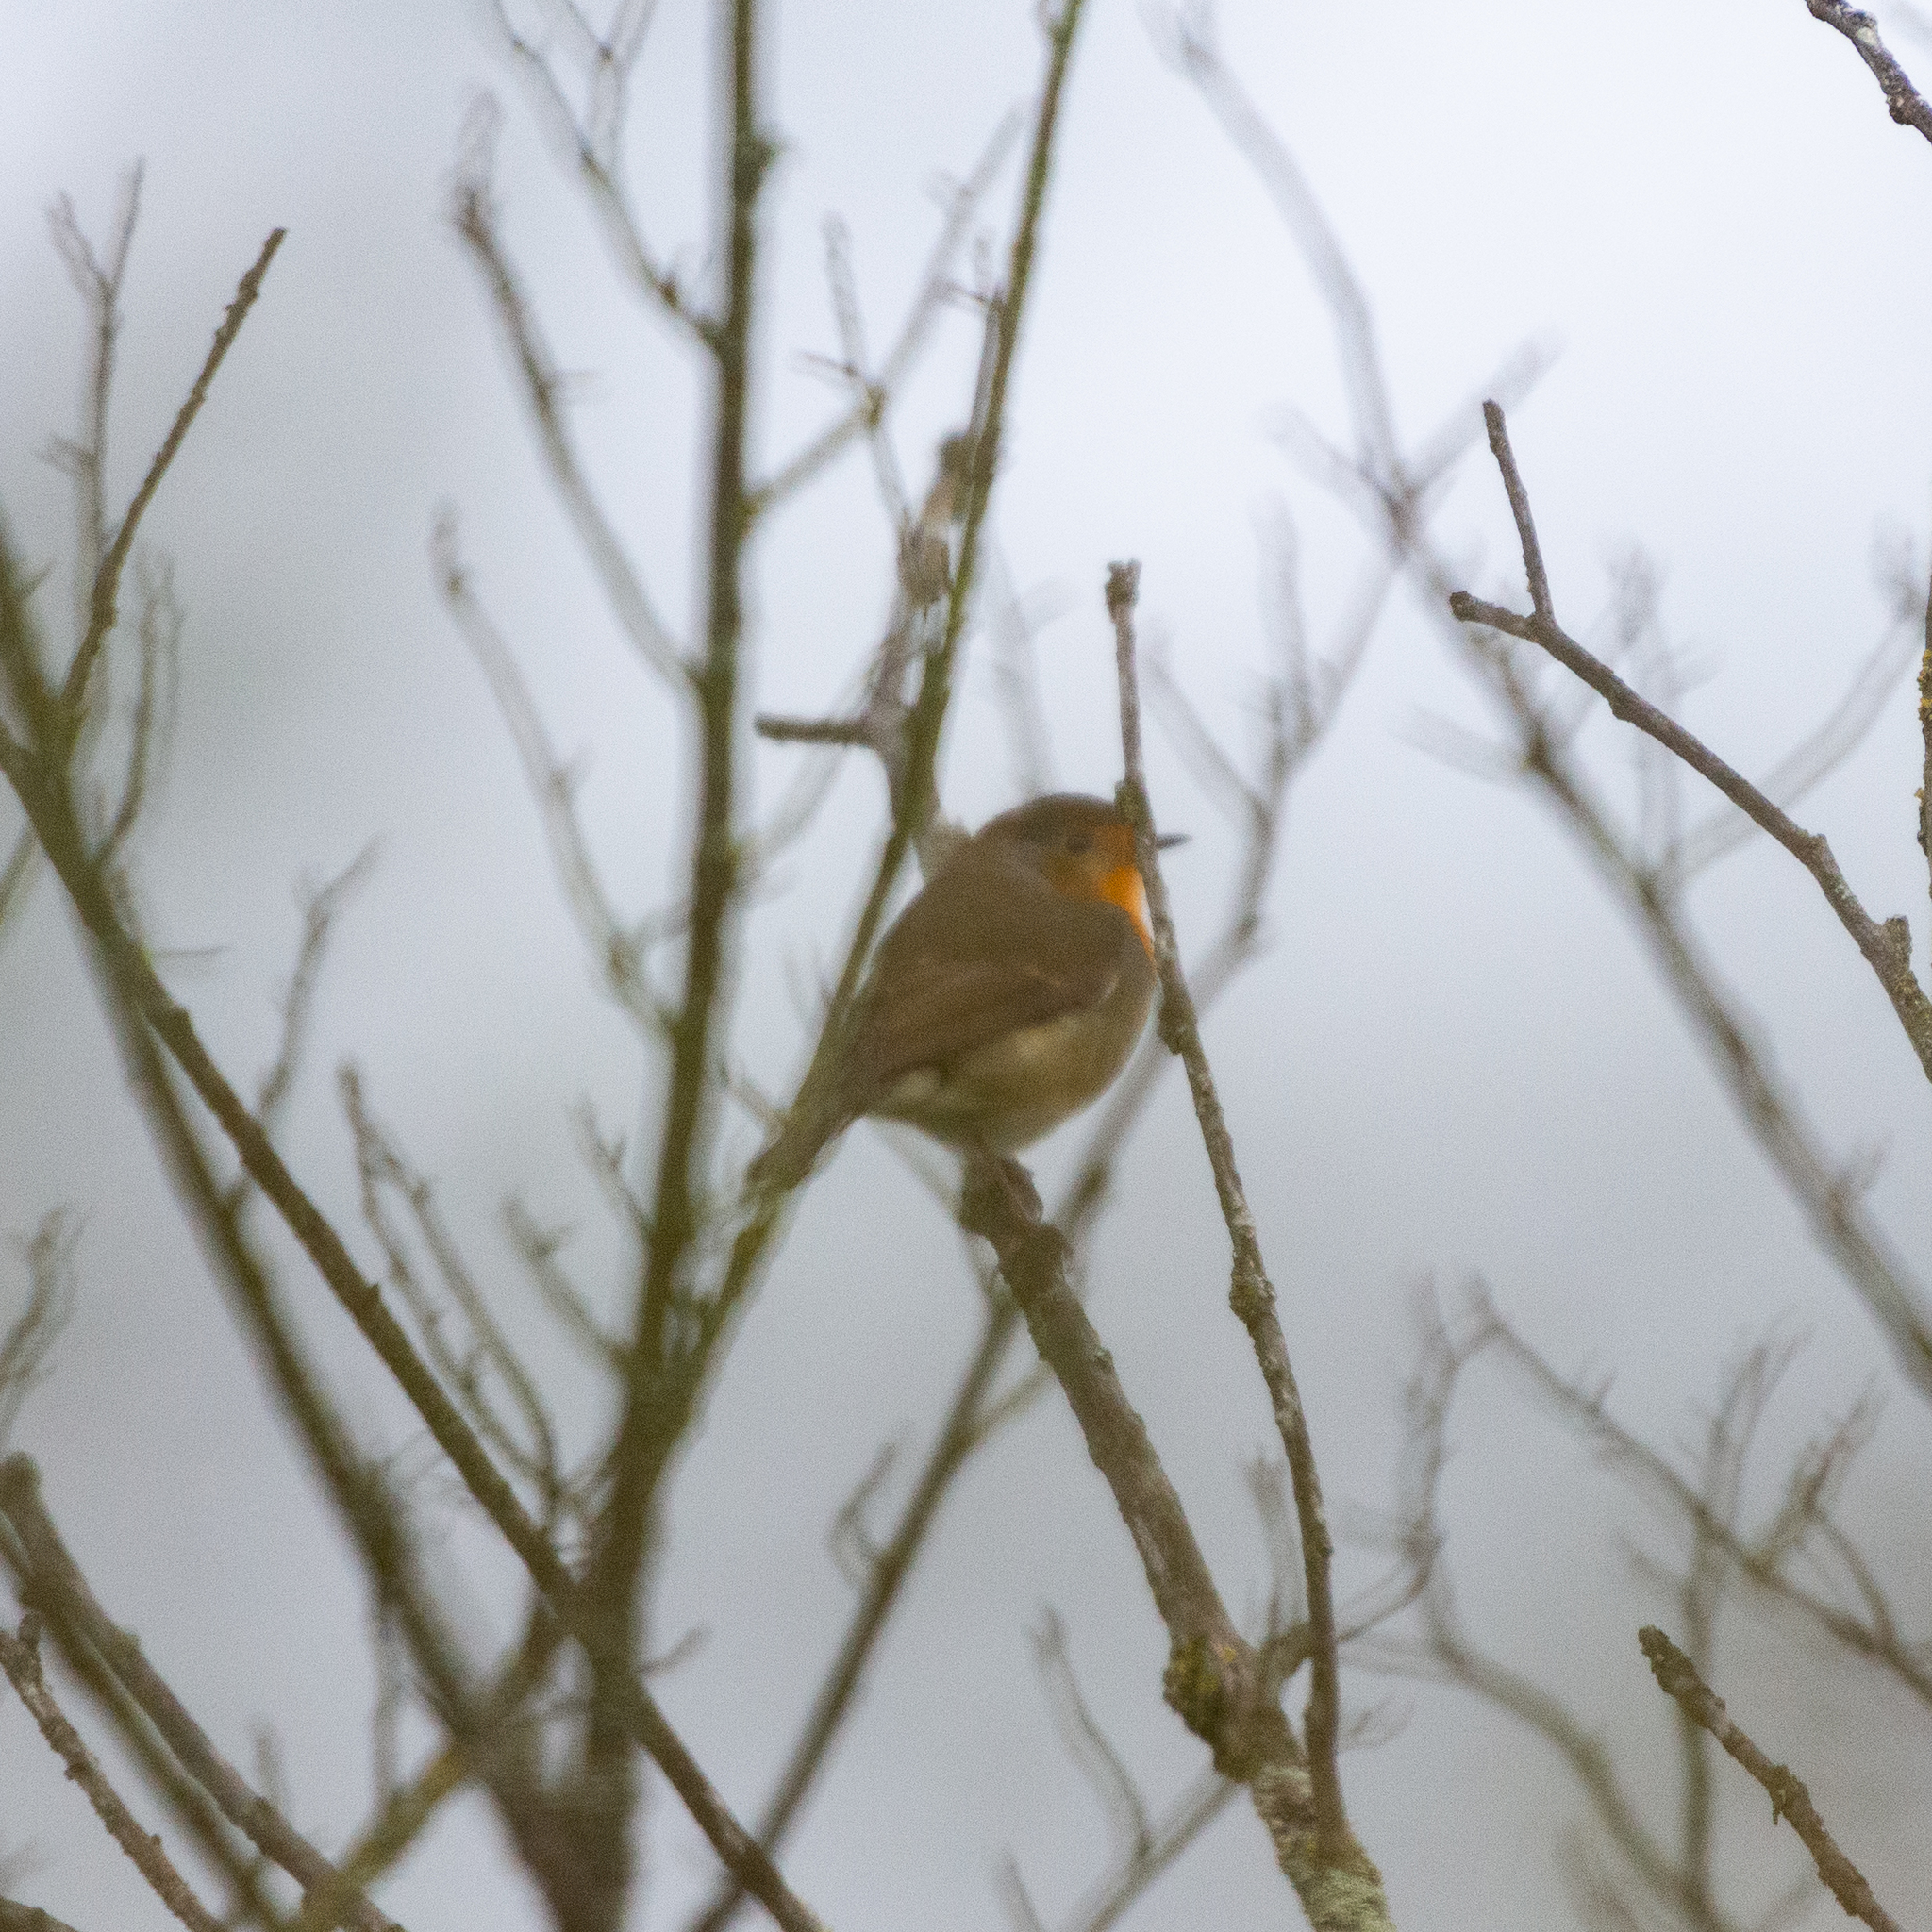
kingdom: Animalia
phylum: Chordata
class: Aves
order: Passeriformes
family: Muscicapidae
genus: Erithacus
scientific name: Erithacus rubecula
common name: European robin
